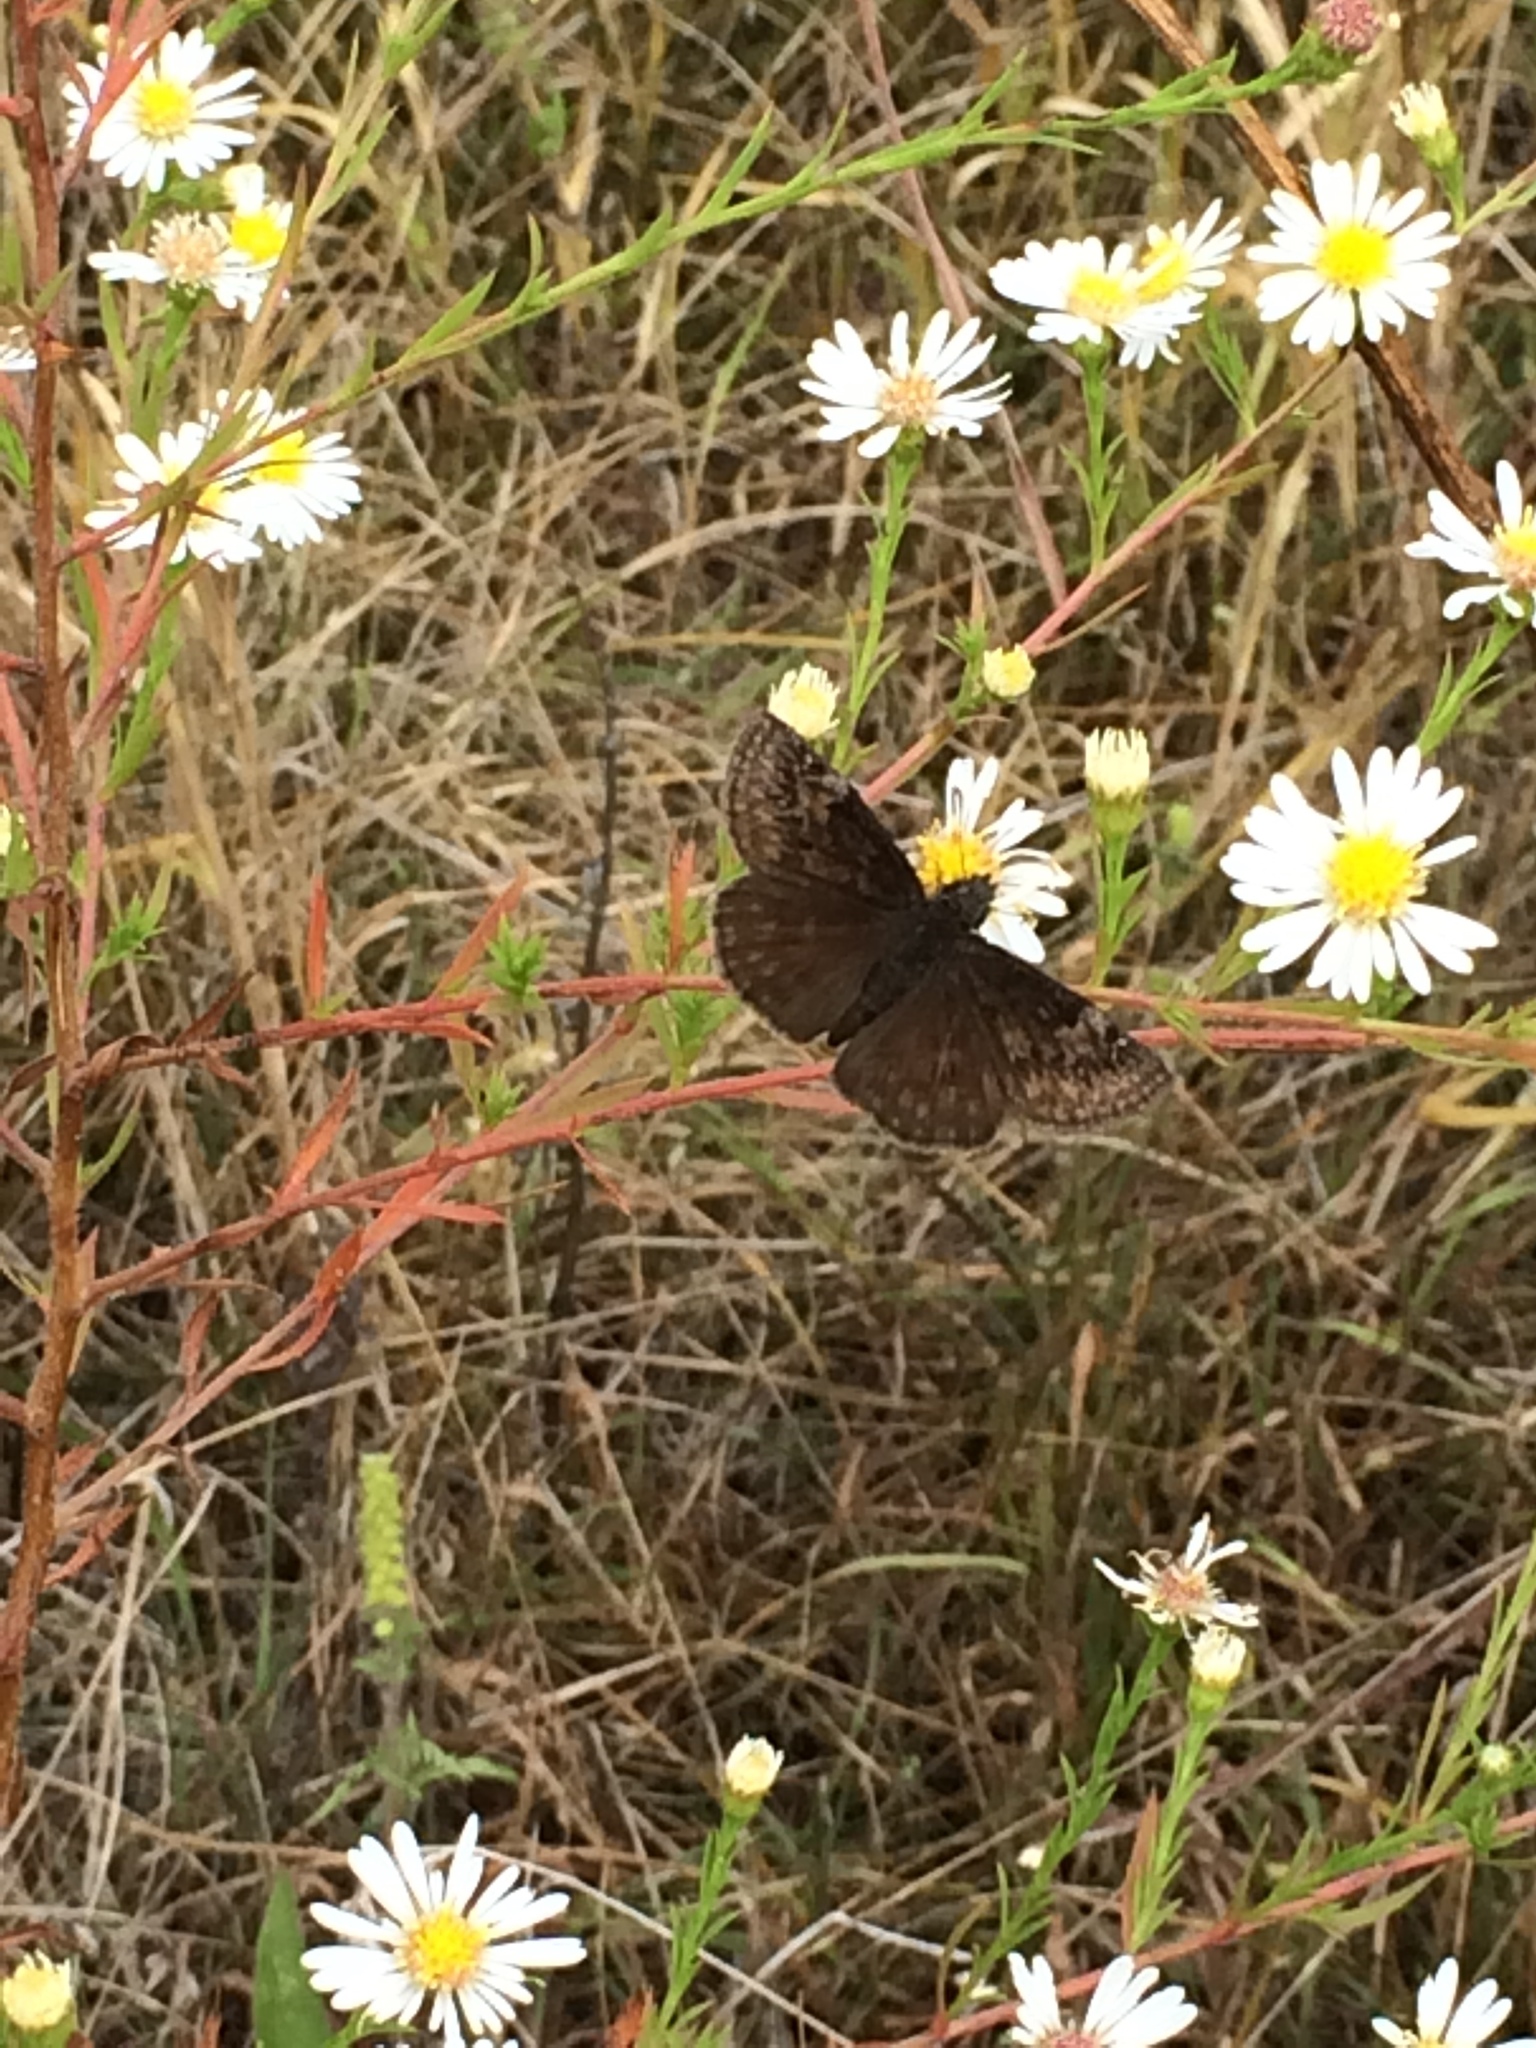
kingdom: Animalia
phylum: Arthropoda
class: Insecta
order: Lepidoptera
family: Hesperiidae
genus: Erynnis
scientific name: Erynnis baptisiae
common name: Wild indigo duskywing
